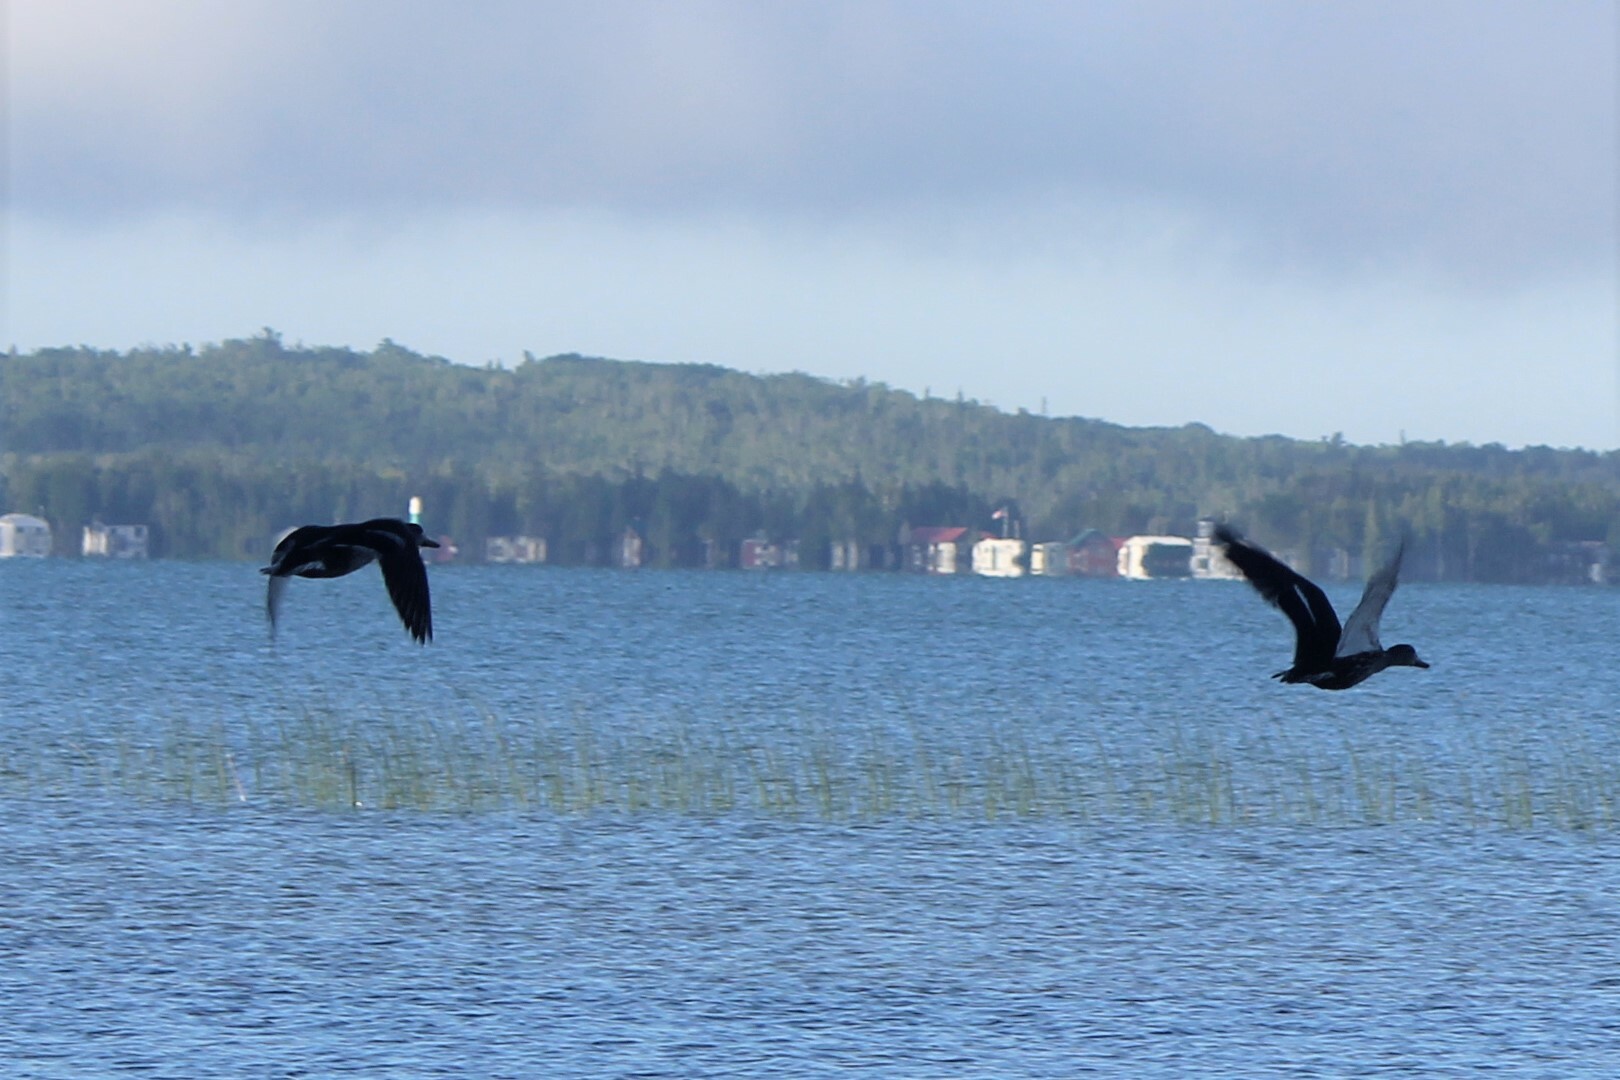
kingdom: Animalia
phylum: Chordata
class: Aves
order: Anseriformes
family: Anatidae
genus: Anas
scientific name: Anas platyrhynchos
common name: Mallard
